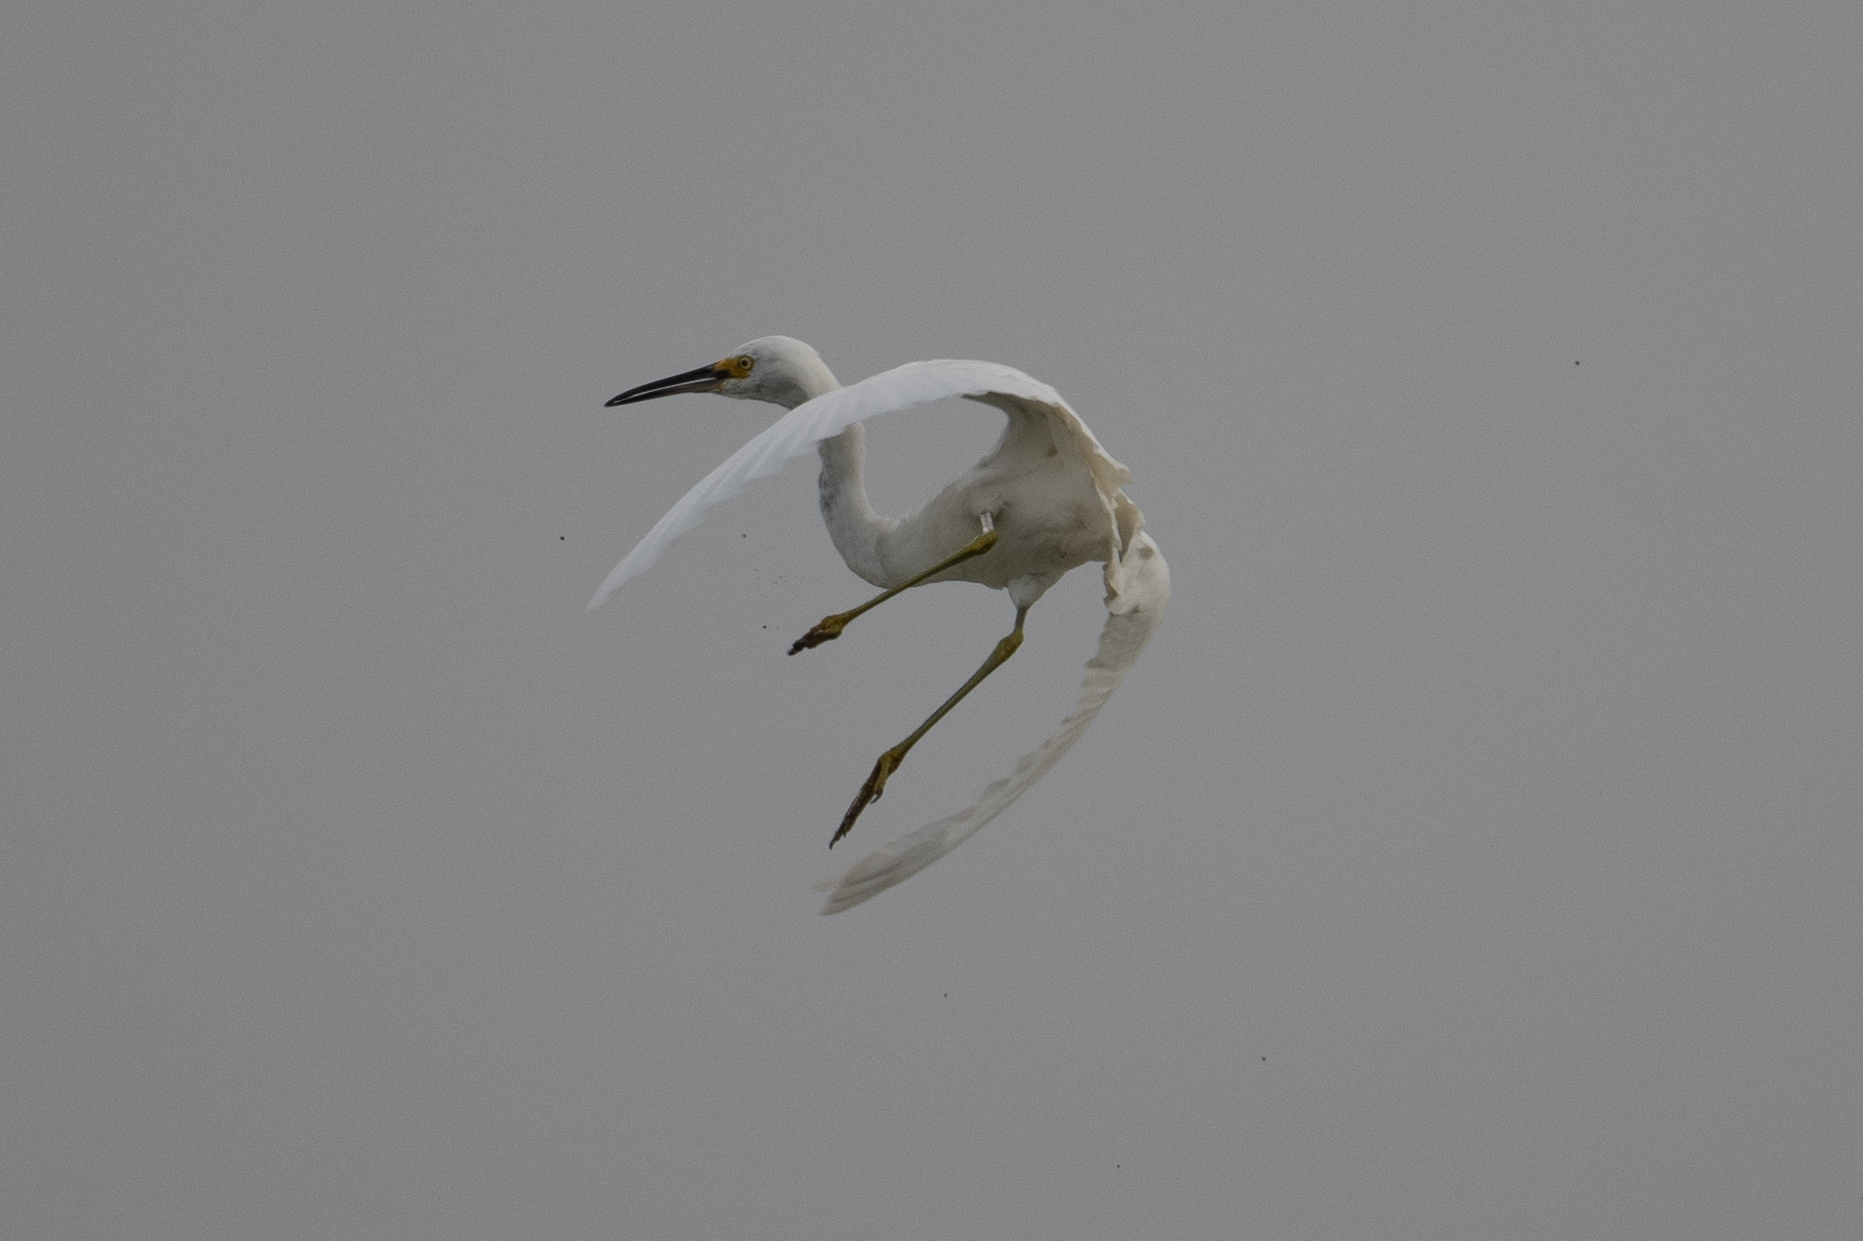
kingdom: Animalia
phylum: Chordata
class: Aves
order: Pelecaniformes
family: Ardeidae
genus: Egretta
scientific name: Egretta thula
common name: Snowy egret
